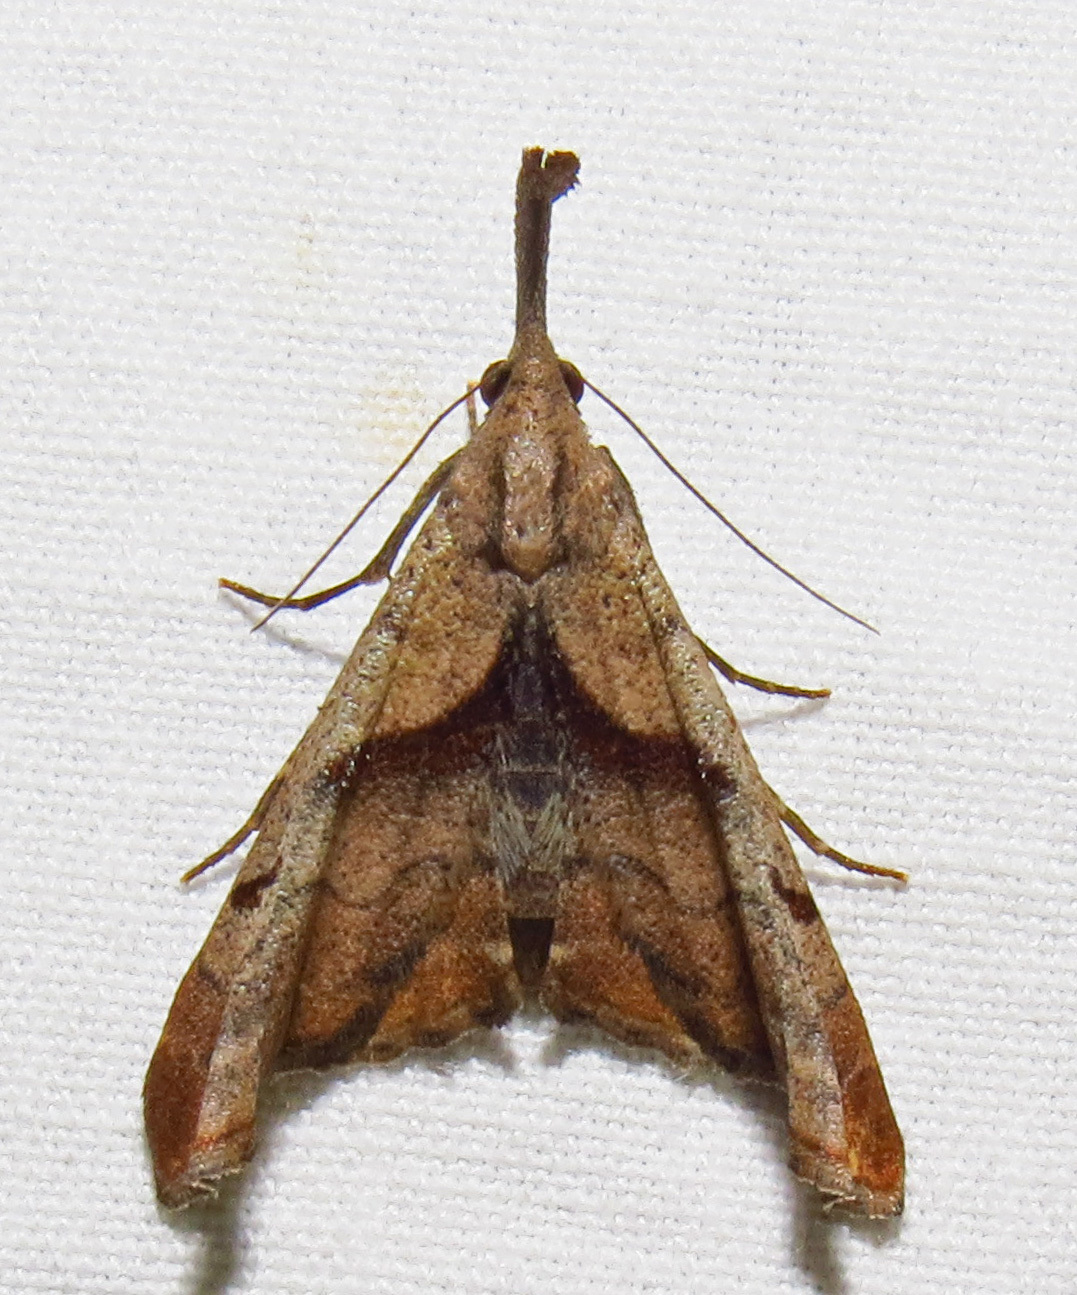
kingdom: Animalia
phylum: Arthropoda
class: Insecta
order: Lepidoptera
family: Erebidae
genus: Palthis
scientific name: Palthis angulalis
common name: Dark-spotted palthis moth
